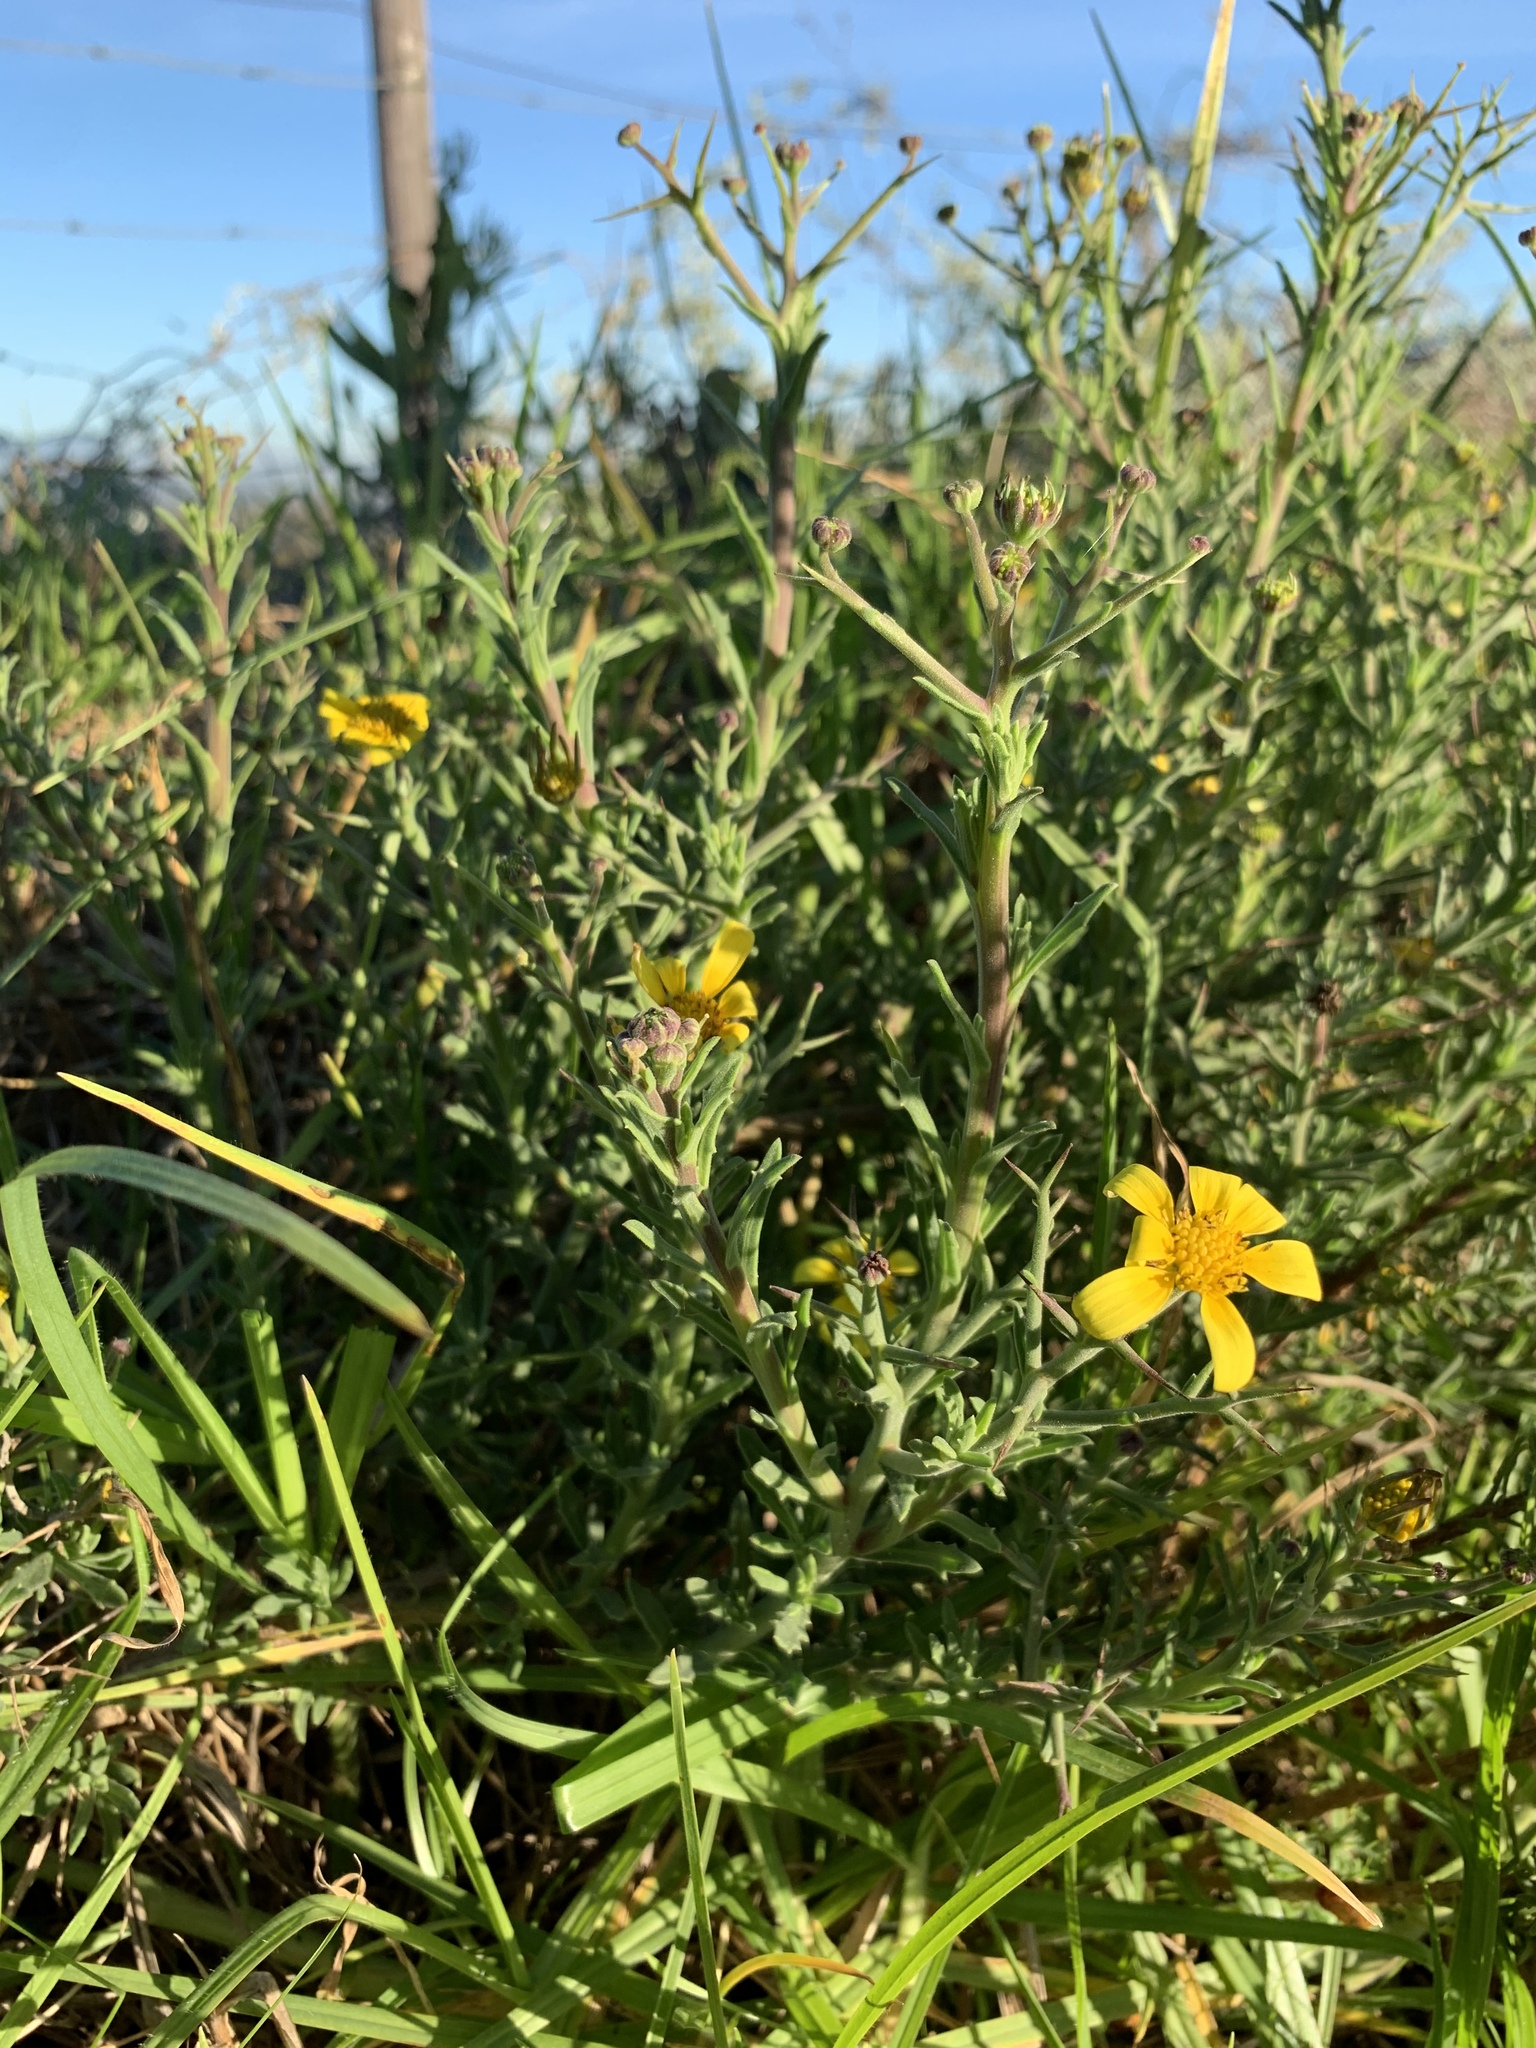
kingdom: Plantae
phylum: Tracheophyta
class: Magnoliopsida
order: Asterales
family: Asteraceae
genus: Osteospermum
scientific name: Osteospermum spinosum
